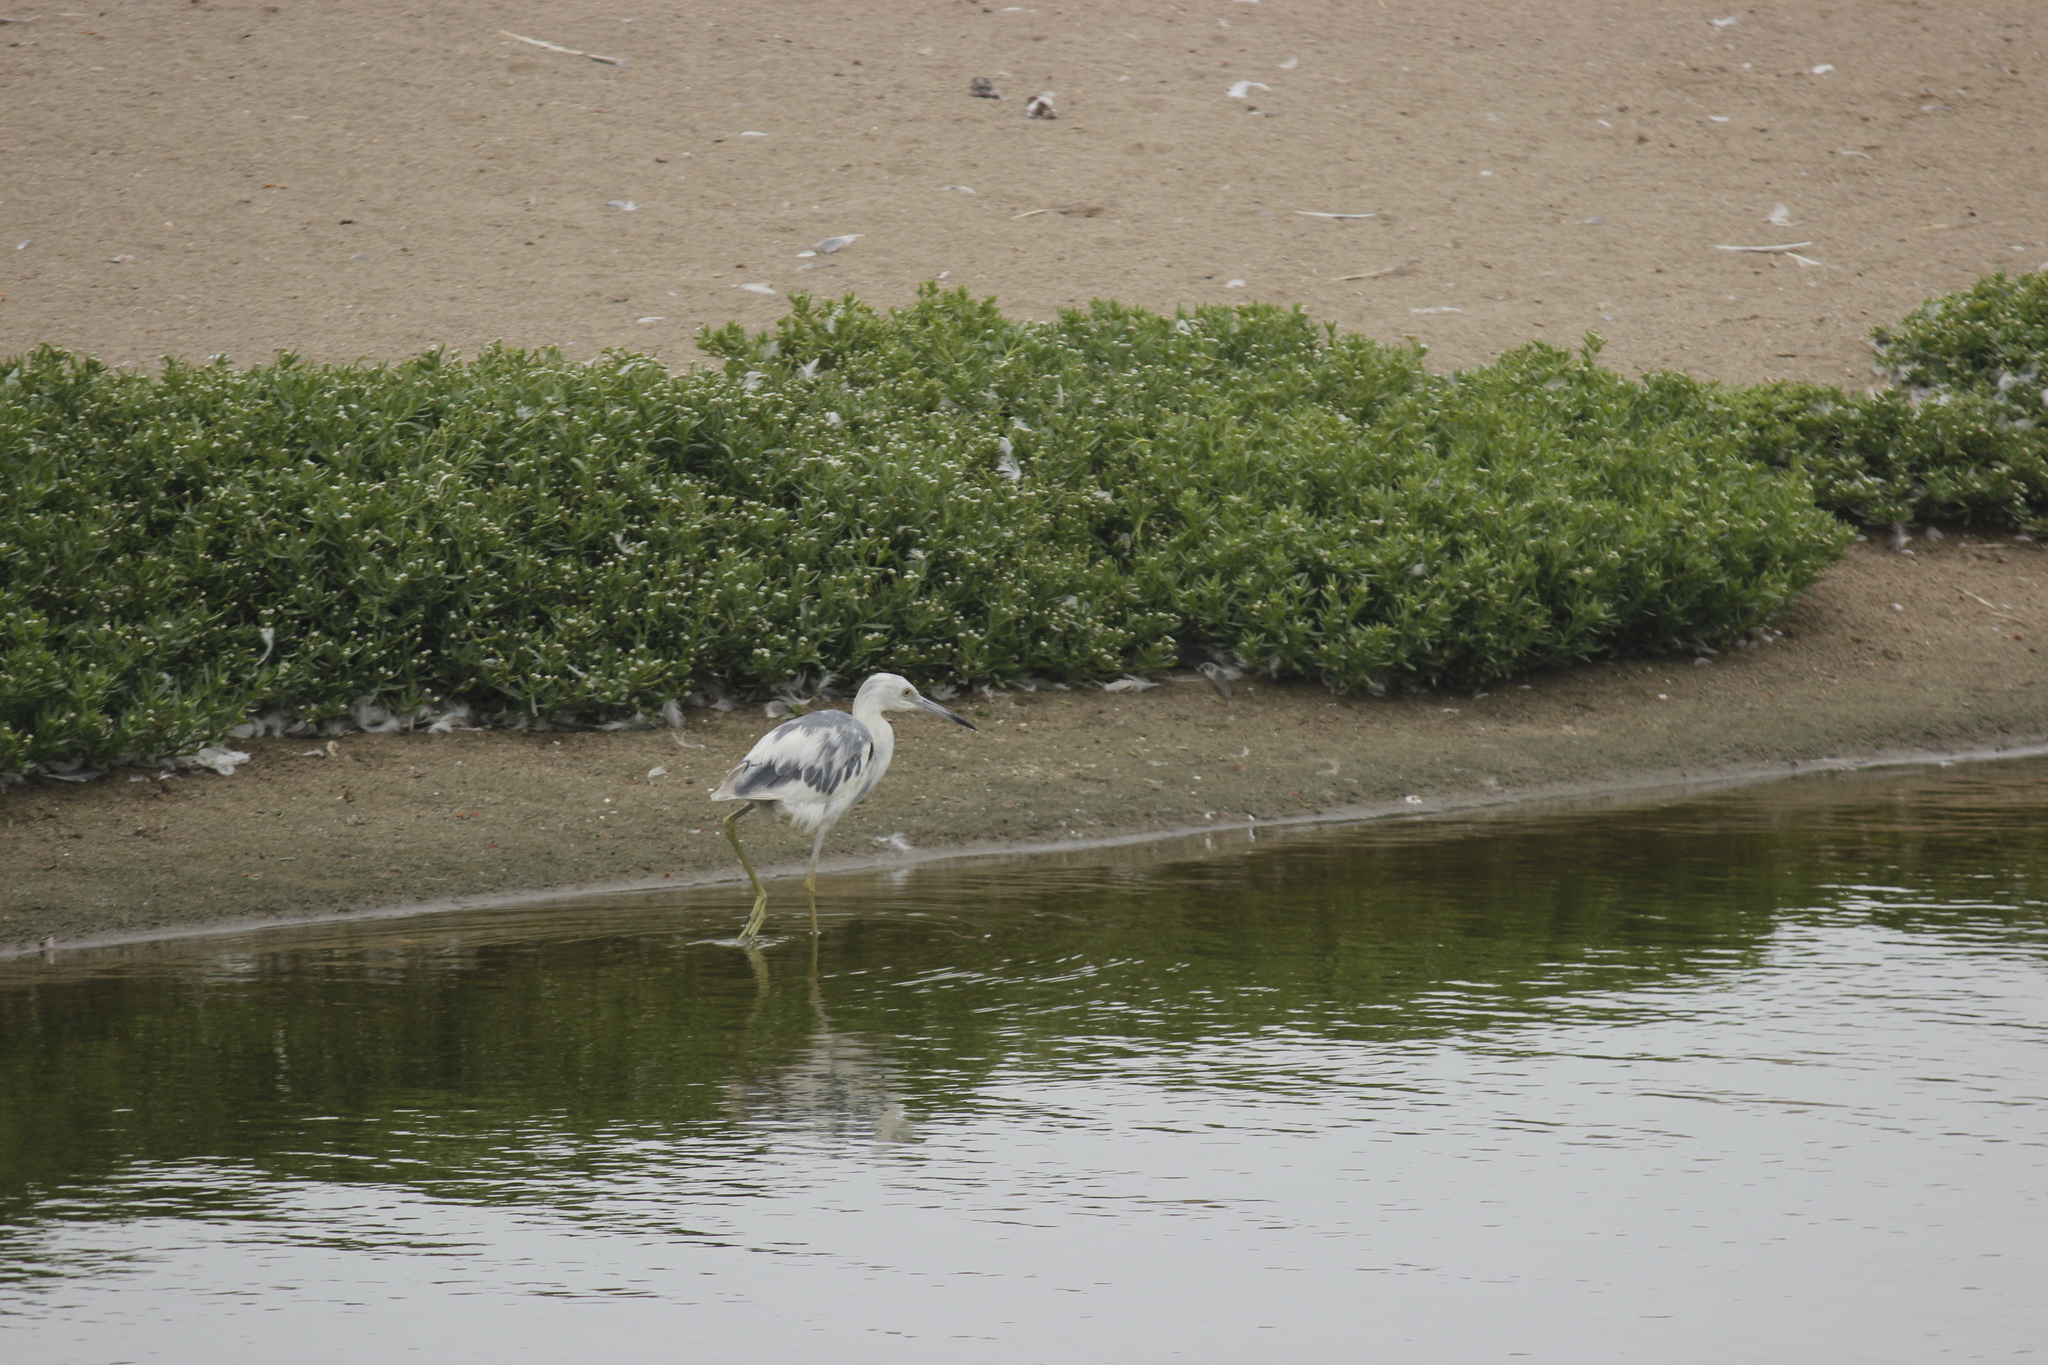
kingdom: Animalia
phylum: Chordata
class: Aves
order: Pelecaniformes
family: Ardeidae
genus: Egretta
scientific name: Egretta caerulea
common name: Little blue heron
